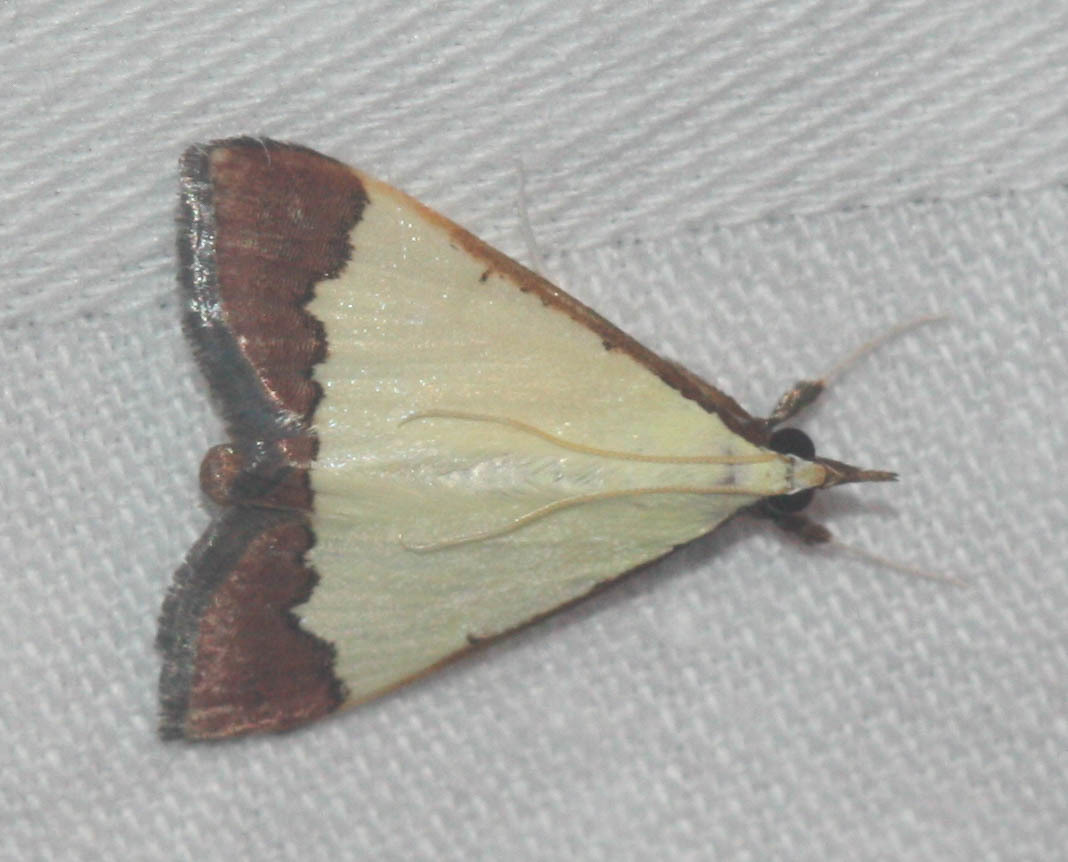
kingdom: Animalia
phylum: Arthropoda
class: Insecta
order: Lepidoptera
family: Crambidae
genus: Autocharis
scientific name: Autocharis hedyphaes
